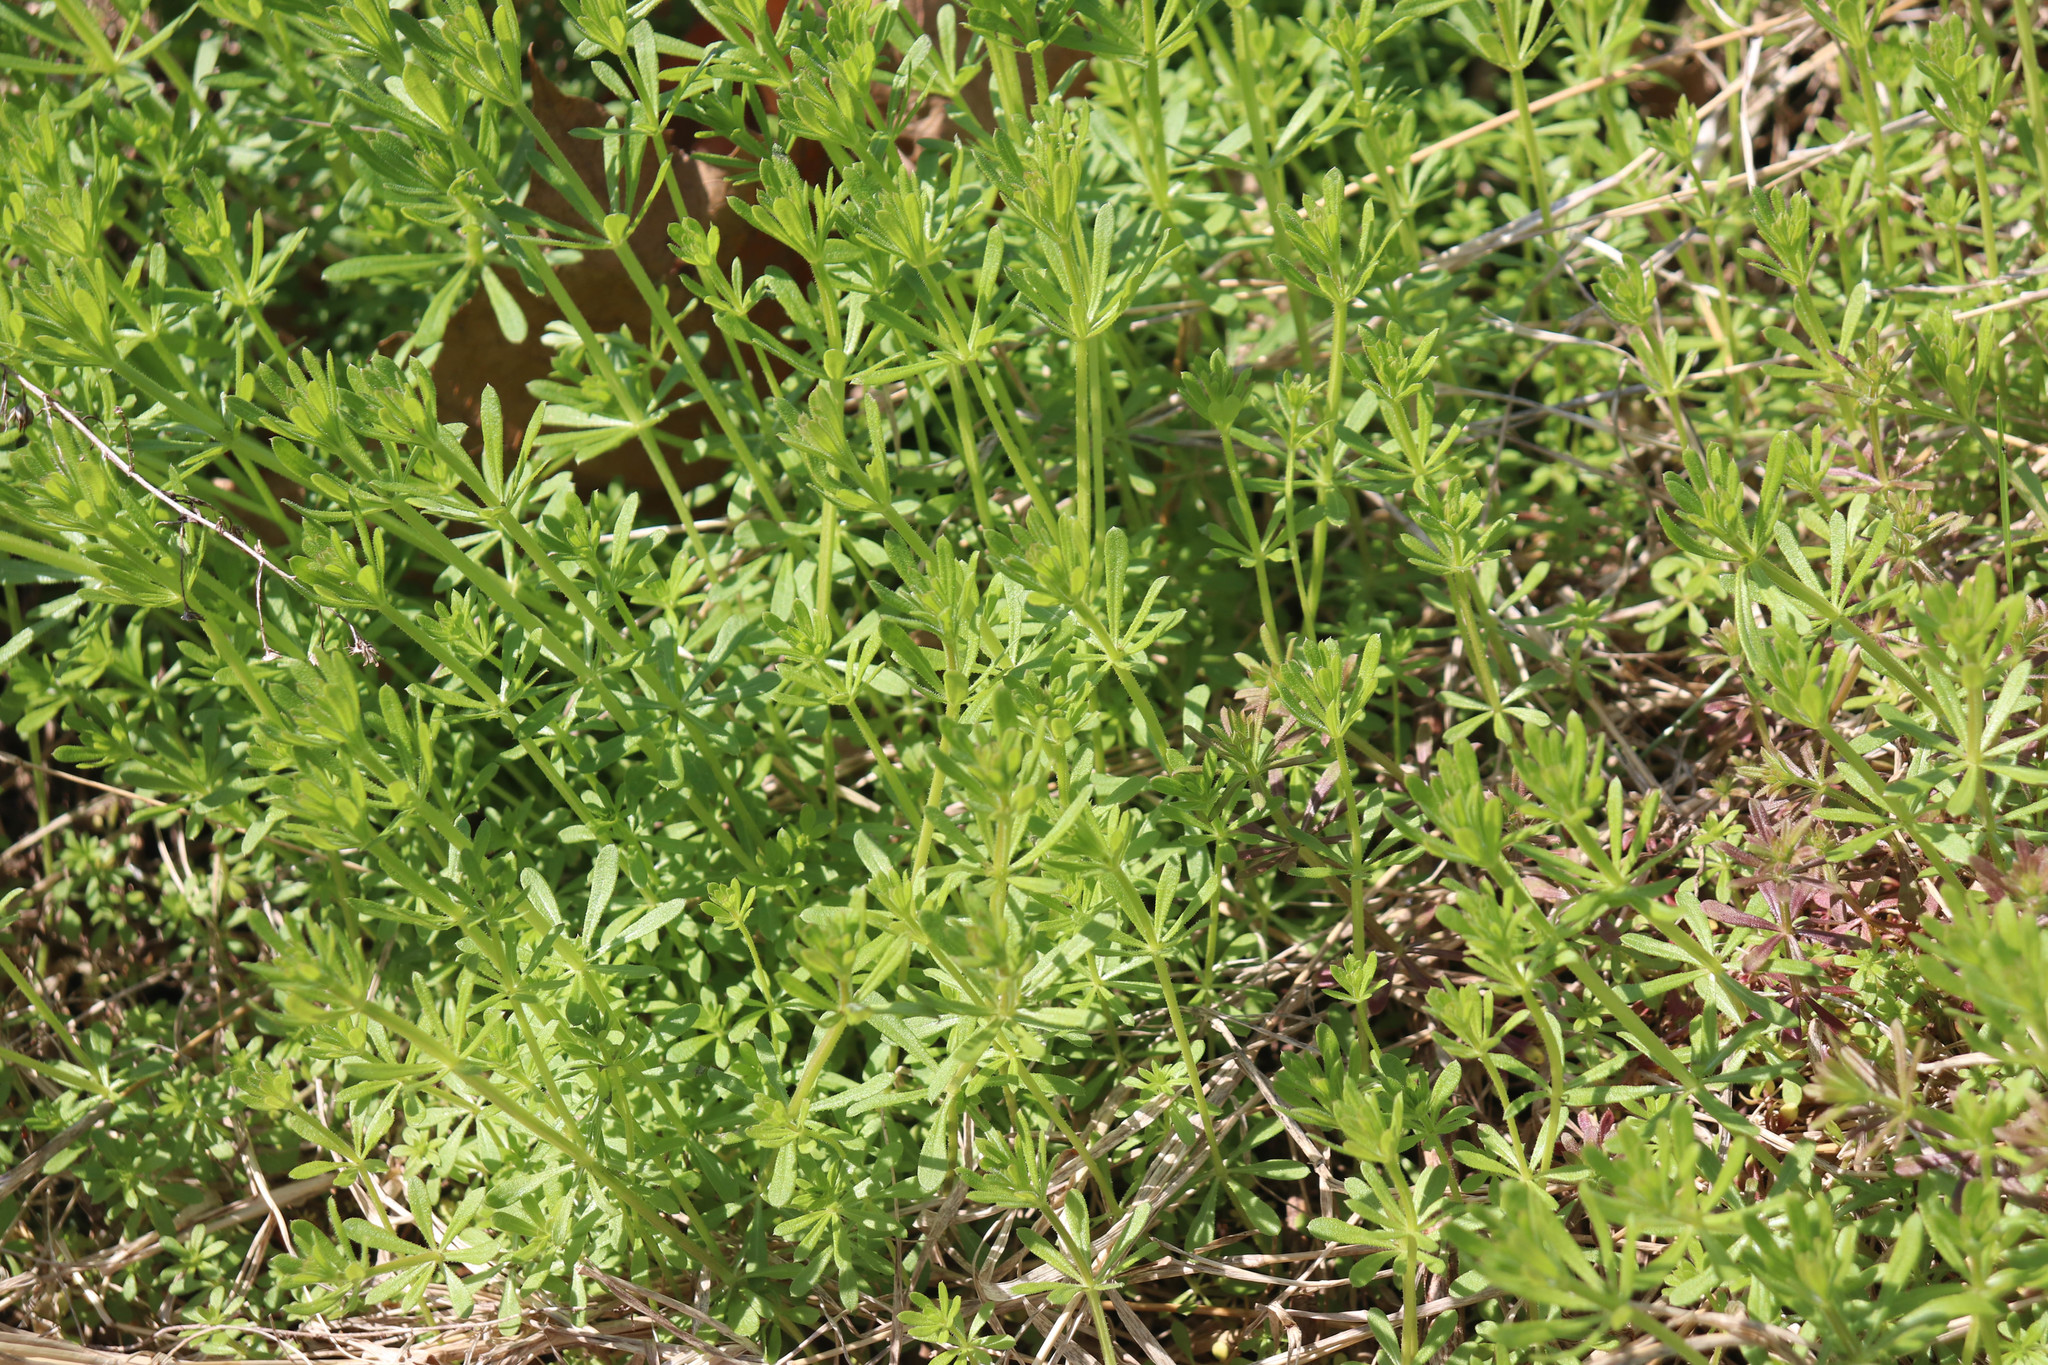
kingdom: Plantae
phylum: Tracheophyta
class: Magnoliopsida
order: Gentianales
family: Rubiaceae
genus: Galium
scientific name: Galium aparine
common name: Cleavers
